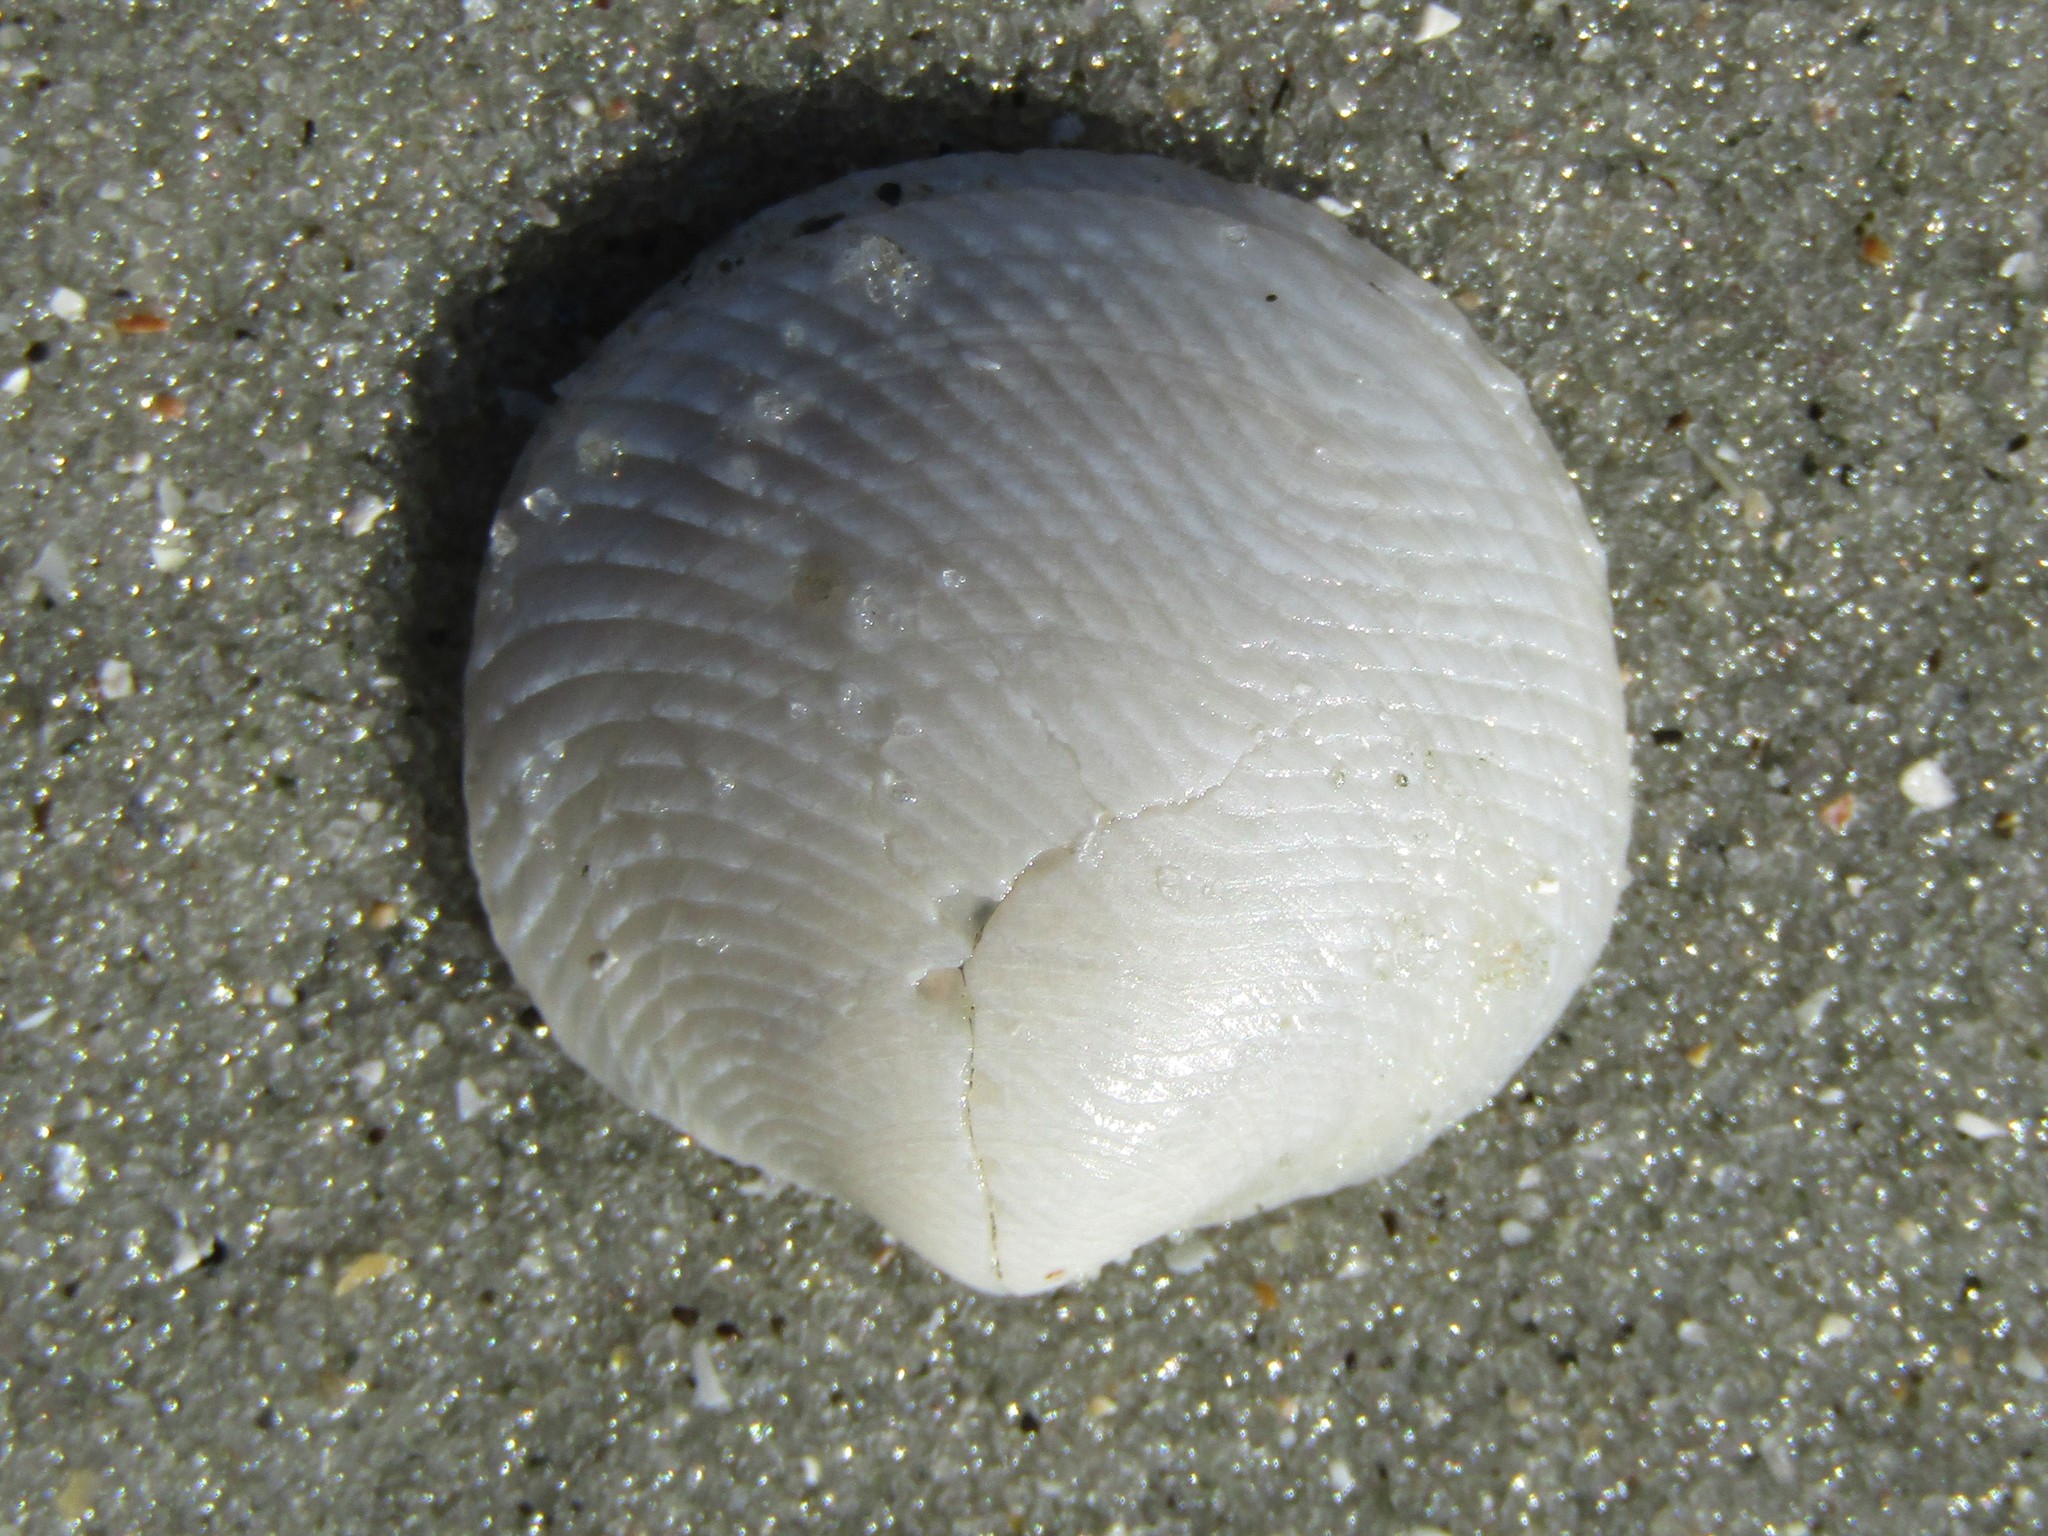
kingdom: Animalia
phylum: Mollusca
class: Bivalvia
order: Lucinida
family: Lucinidae
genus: Divalinga
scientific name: Divalinga quadrisulcata
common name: Cross-hatched lucine
